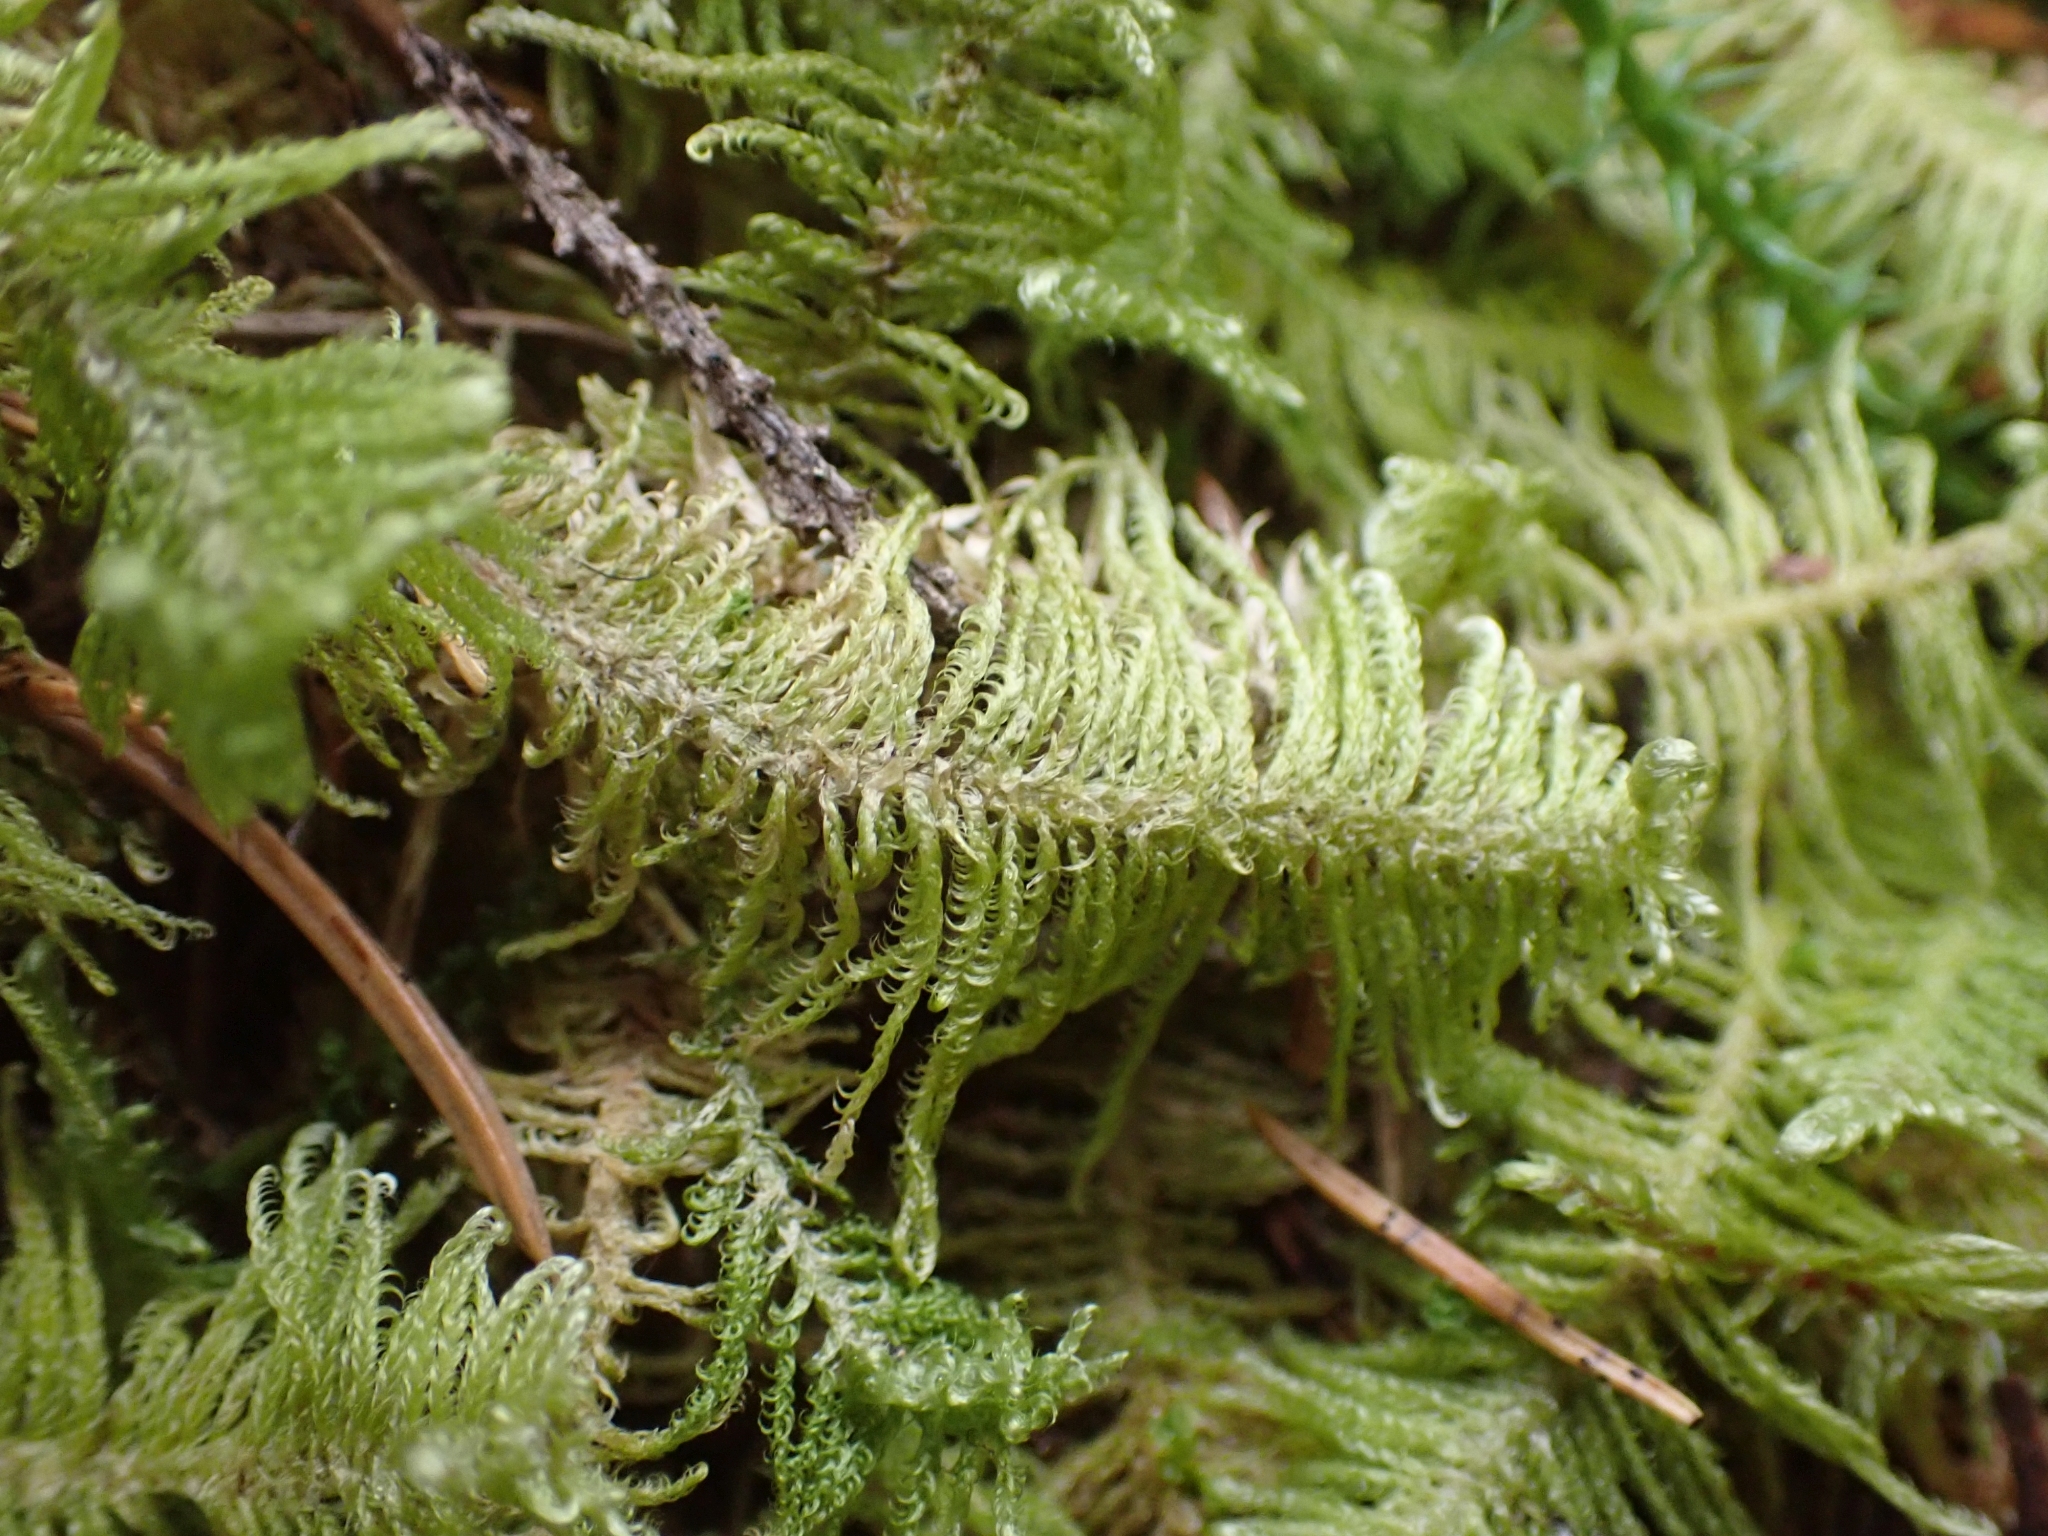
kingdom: Plantae
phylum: Bryophyta
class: Bryopsida
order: Hypnales
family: Pylaisiaceae
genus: Ptilium
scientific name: Ptilium crista-castrensis
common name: Knight's plume moss
